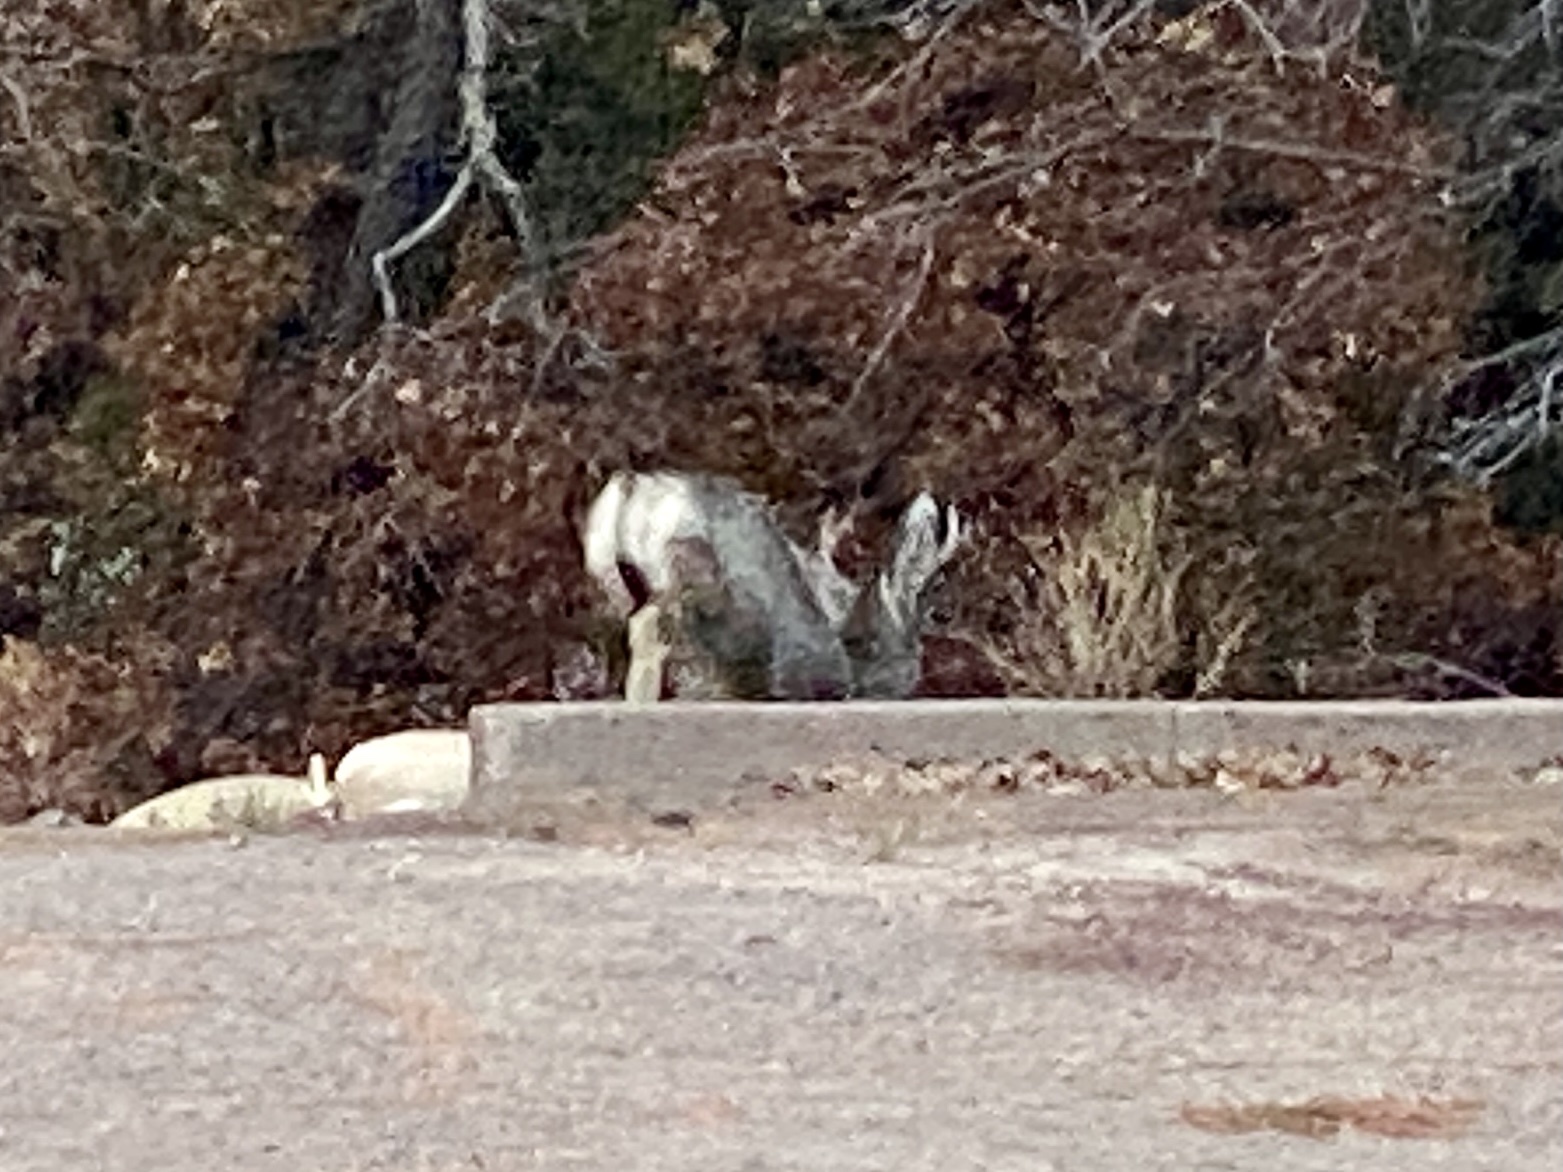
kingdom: Animalia
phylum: Chordata
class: Mammalia
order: Artiodactyla
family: Cervidae
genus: Odocoileus
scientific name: Odocoileus hemionus
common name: Mule deer
